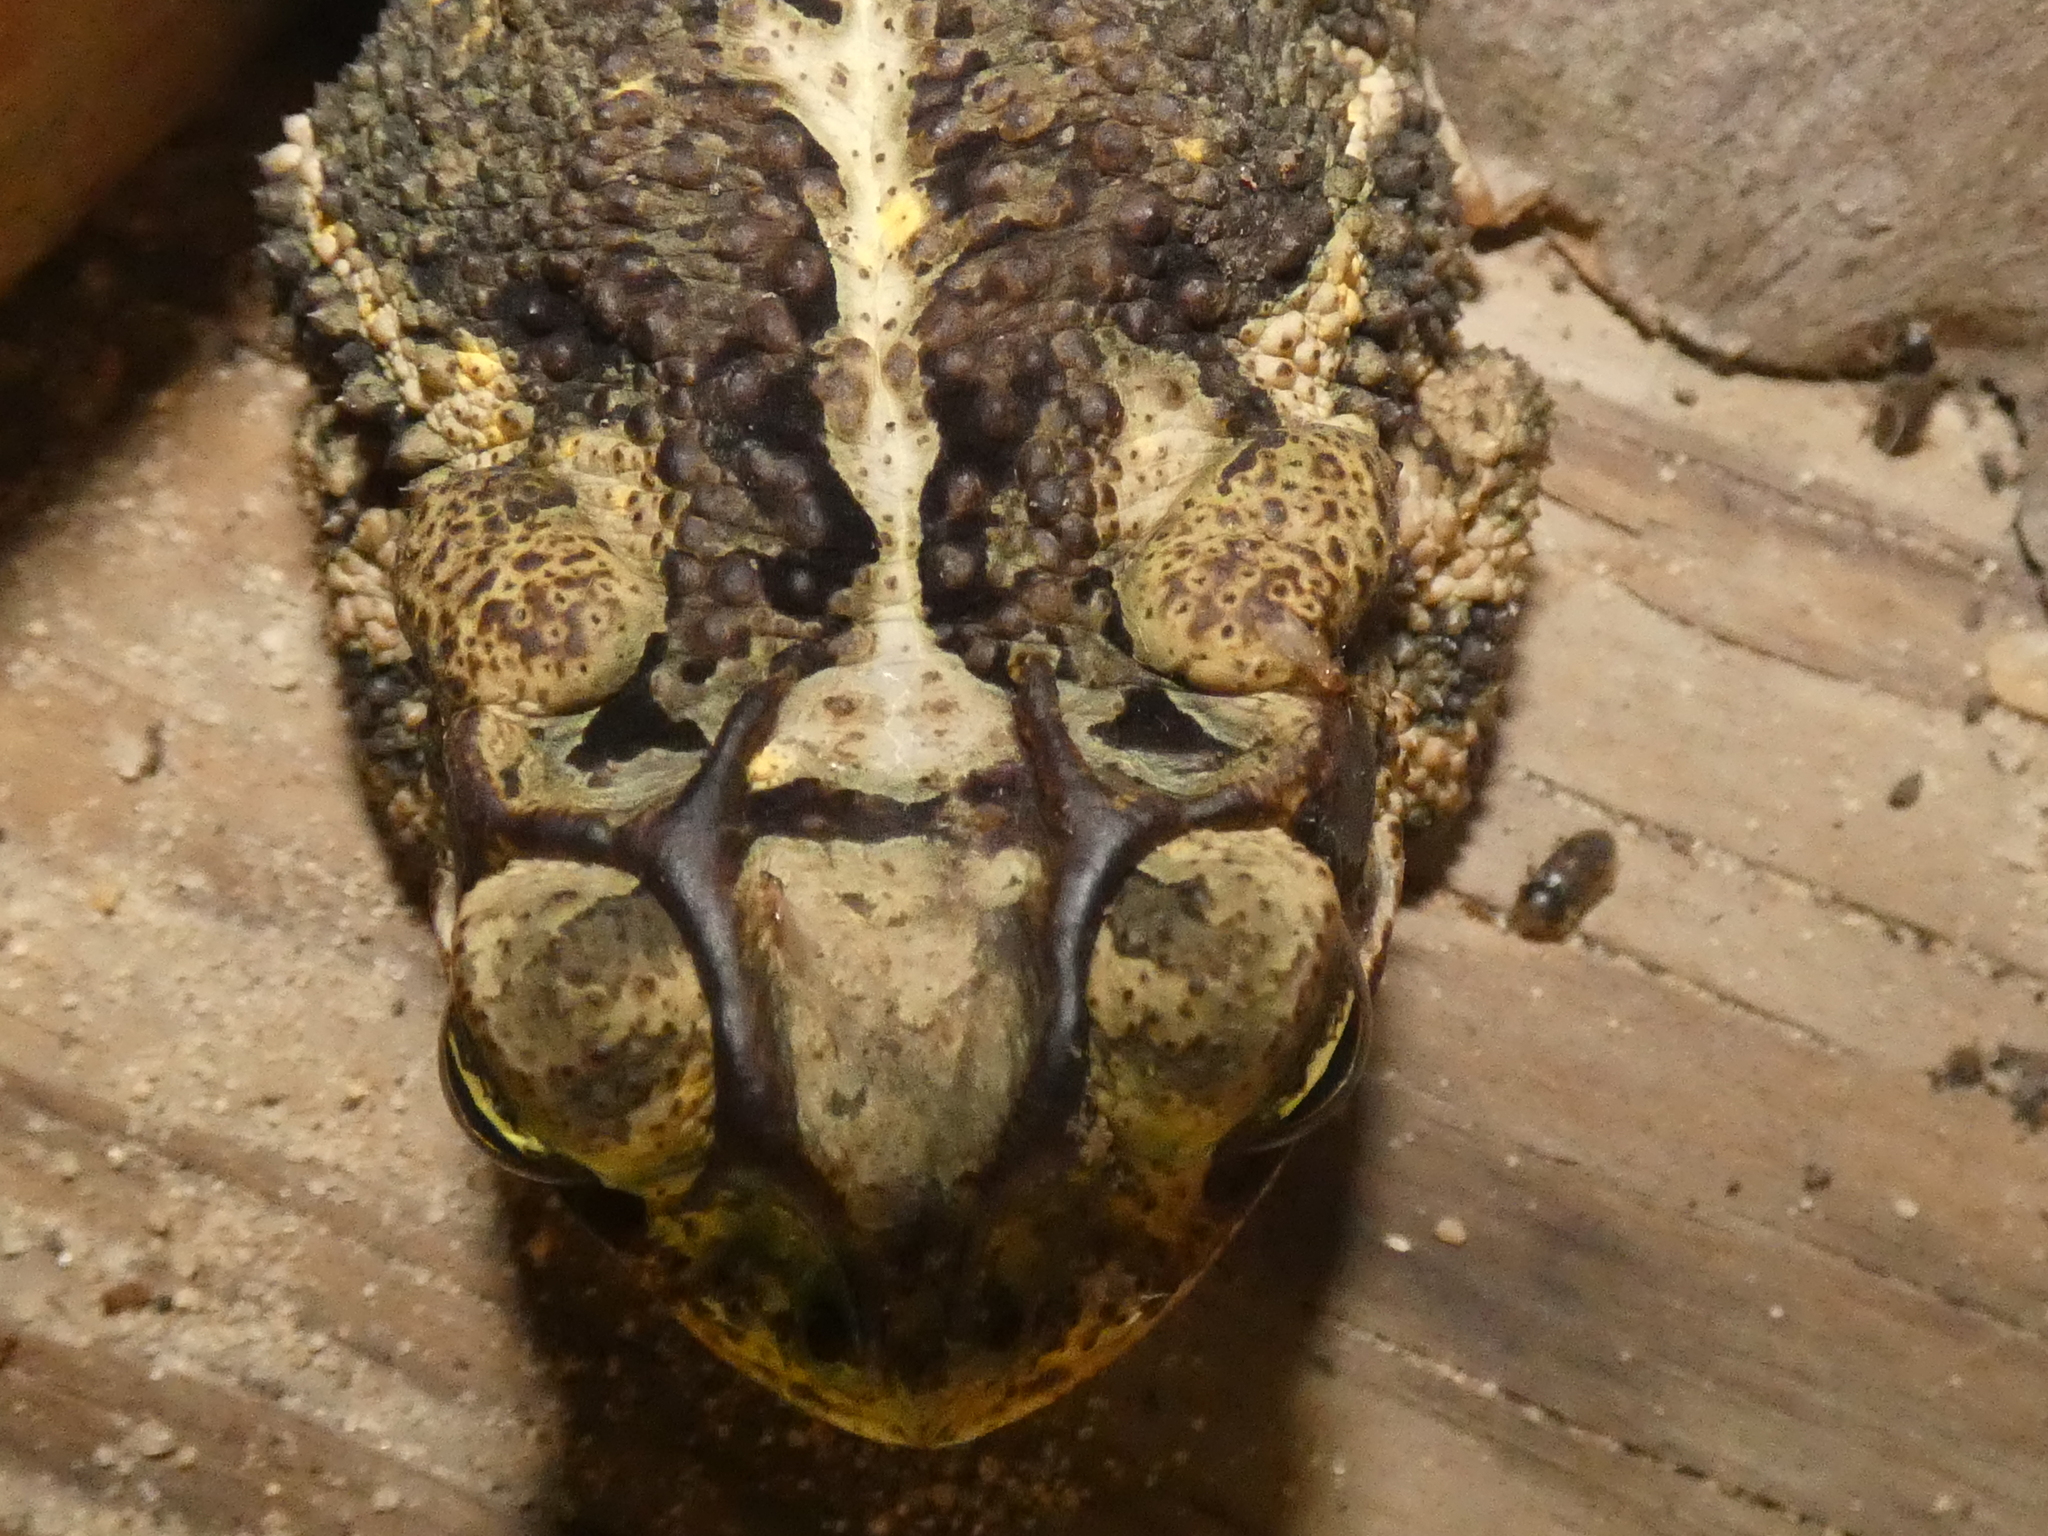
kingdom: Animalia
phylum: Chordata
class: Amphibia
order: Anura
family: Bufonidae
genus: Incilius
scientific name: Incilius nebulifer
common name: Gulf coast toad
